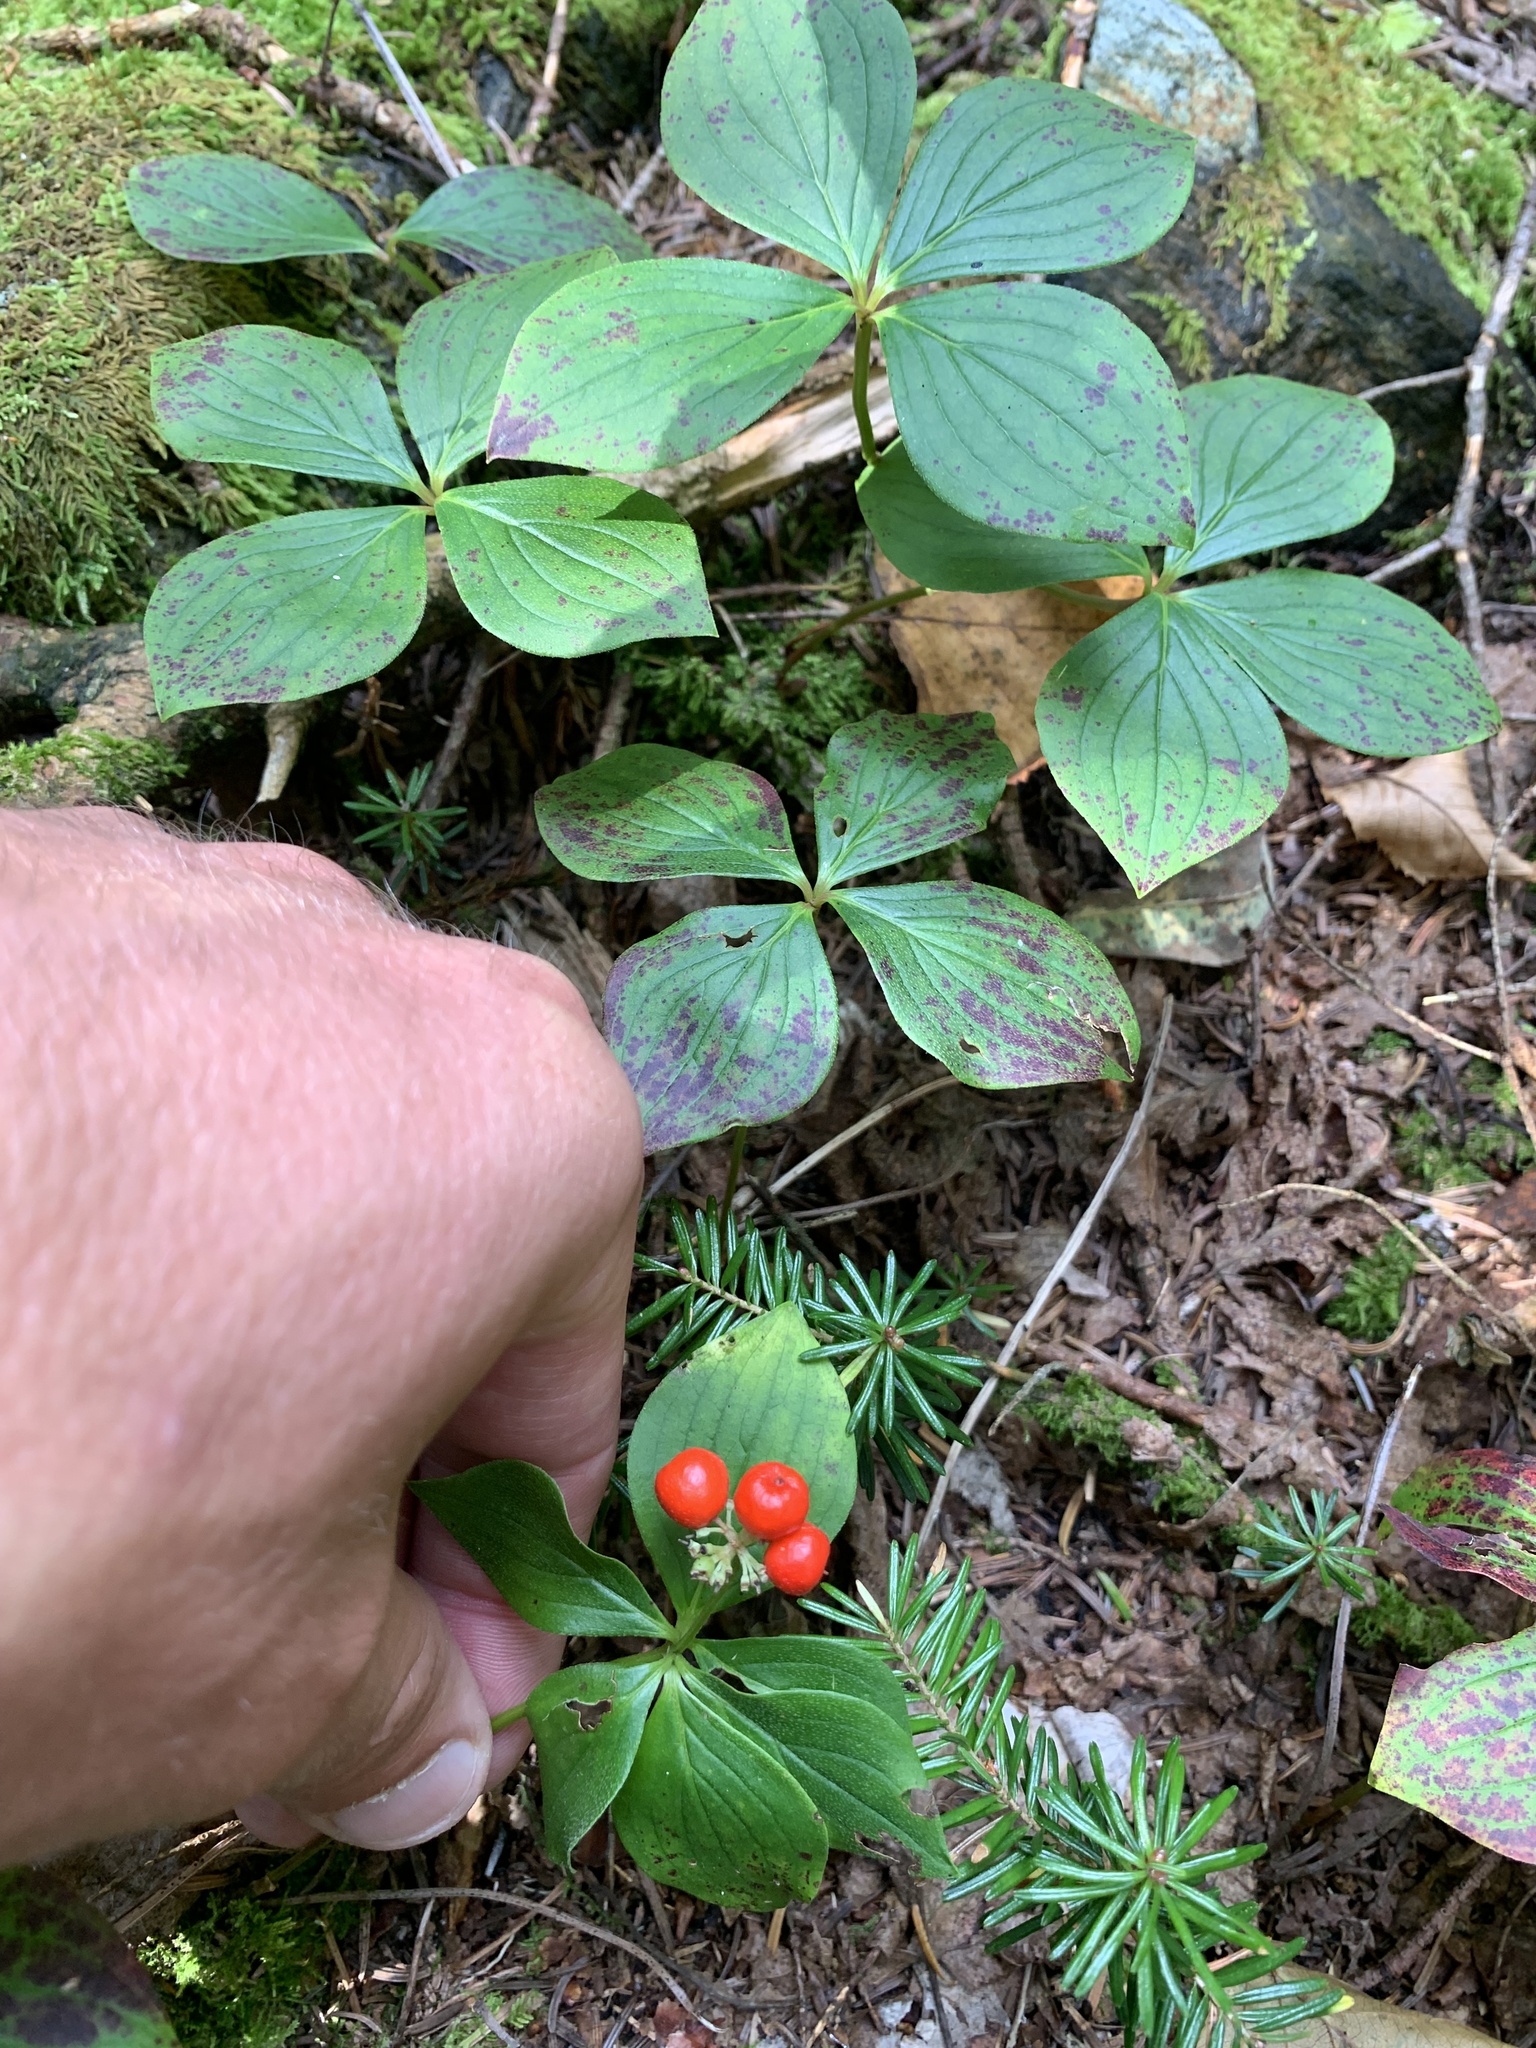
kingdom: Plantae
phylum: Tracheophyta
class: Magnoliopsida
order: Cornales
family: Cornaceae
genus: Cornus
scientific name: Cornus canadensis
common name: Creeping dogwood
